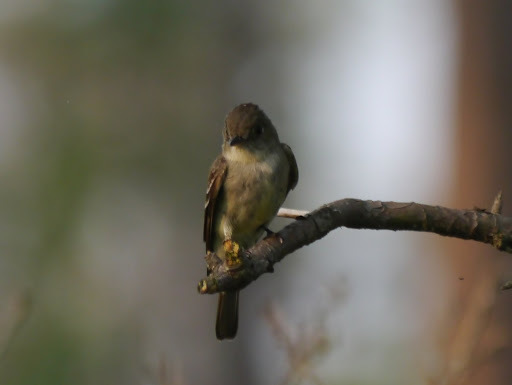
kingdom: Animalia
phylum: Chordata
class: Aves
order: Passeriformes
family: Tyrannidae
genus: Contopus
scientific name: Contopus virens
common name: Eastern wood-pewee
